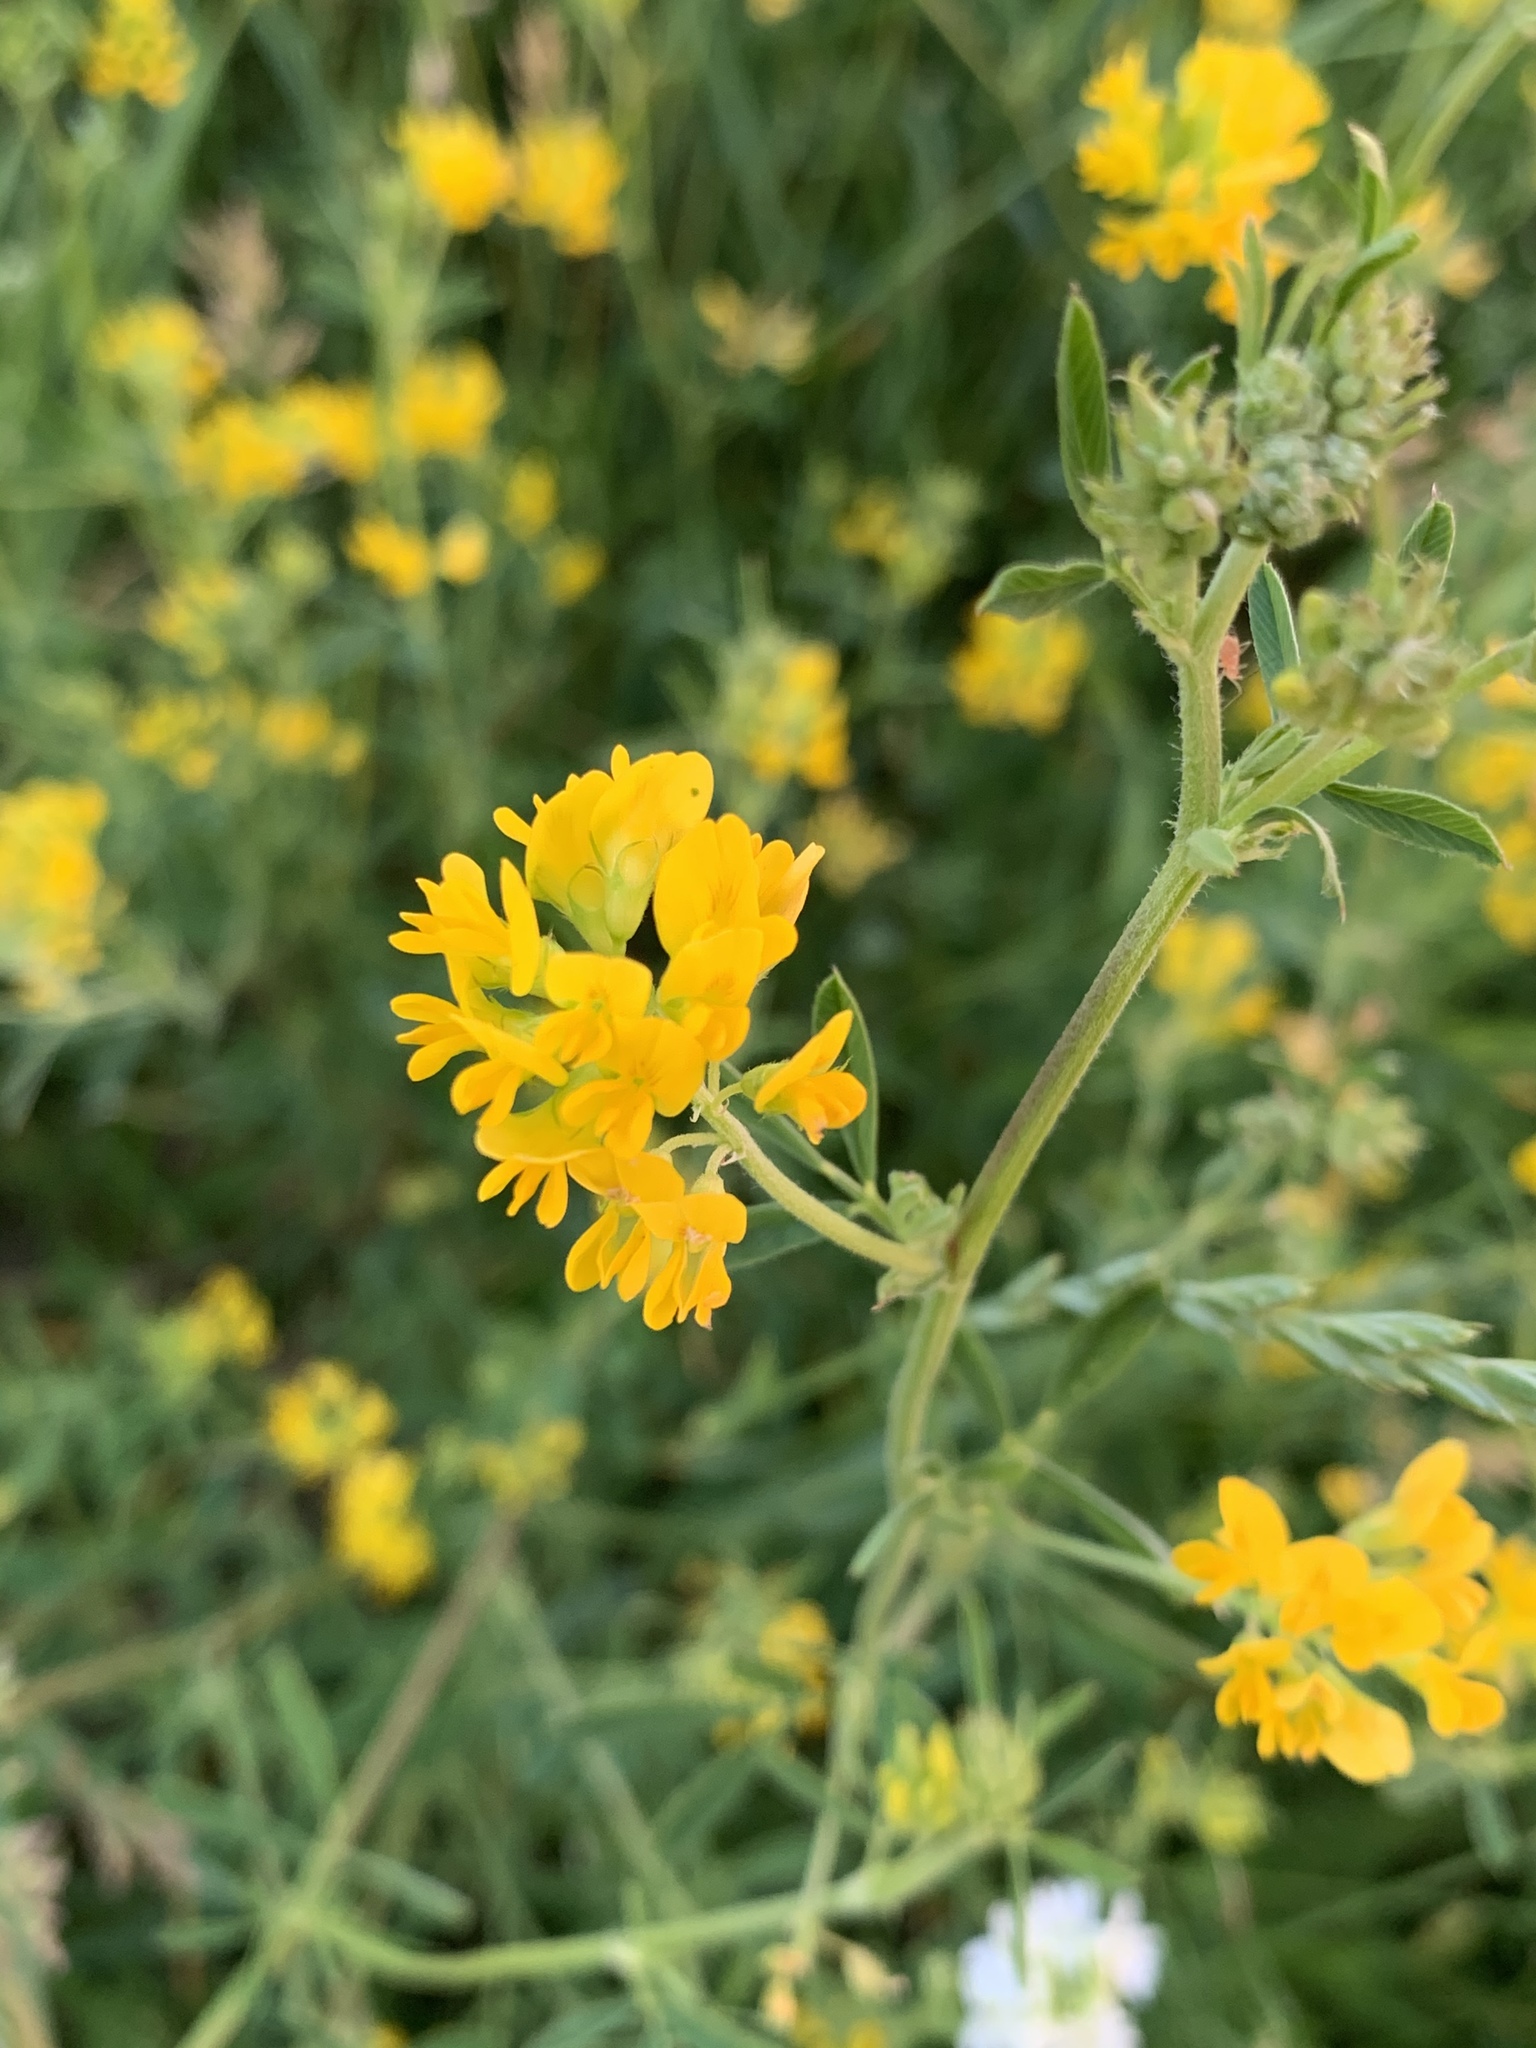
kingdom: Plantae
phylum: Tracheophyta
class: Magnoliopsida
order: Fabales
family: Fabaceae
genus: Medicago
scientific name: Medicago falcata
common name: Sickle medick
